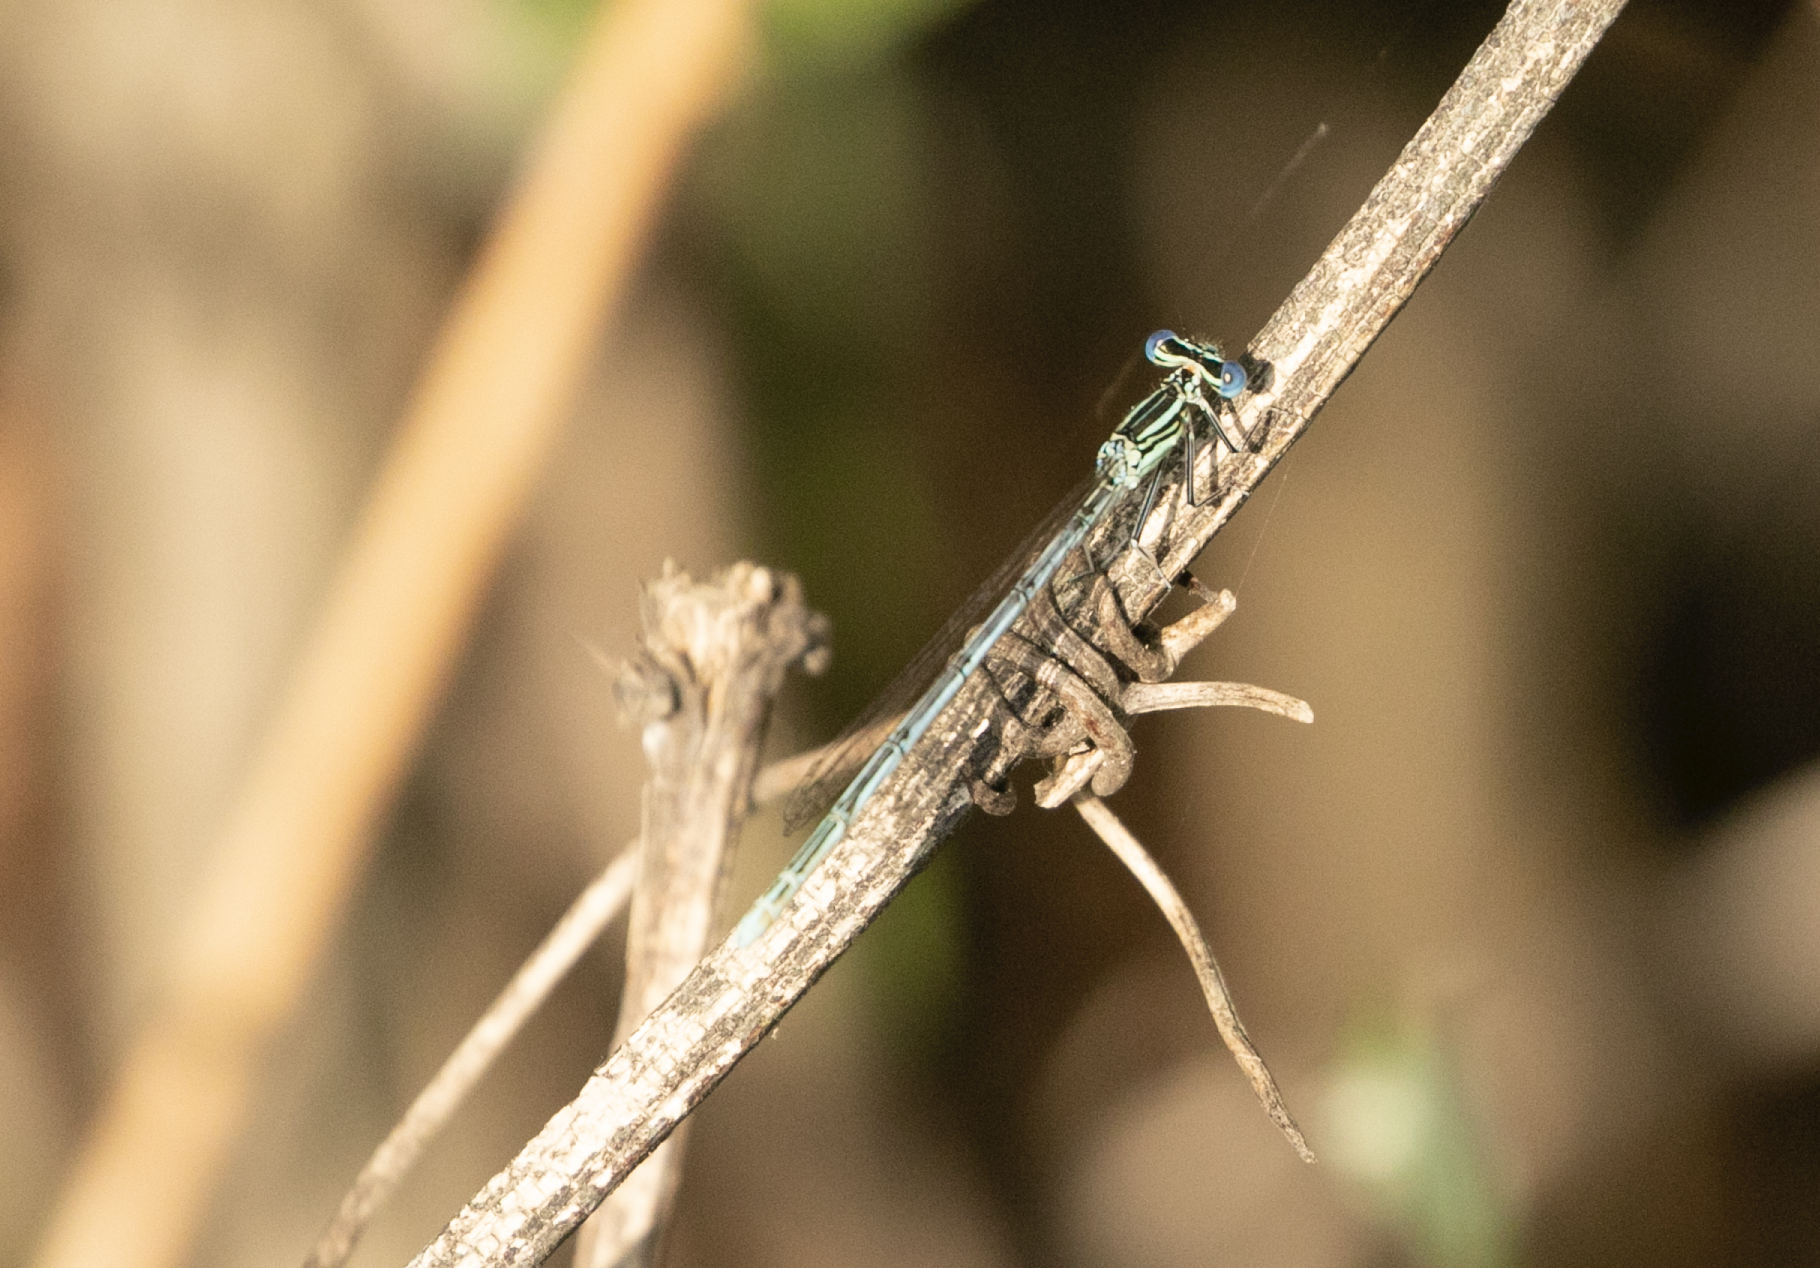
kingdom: Animalia
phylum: Arthropoda
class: Insecta
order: Odonata
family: Platycnemididae
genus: Platycnemis
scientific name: Platycnemis pennipes
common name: White-legged damselfly
